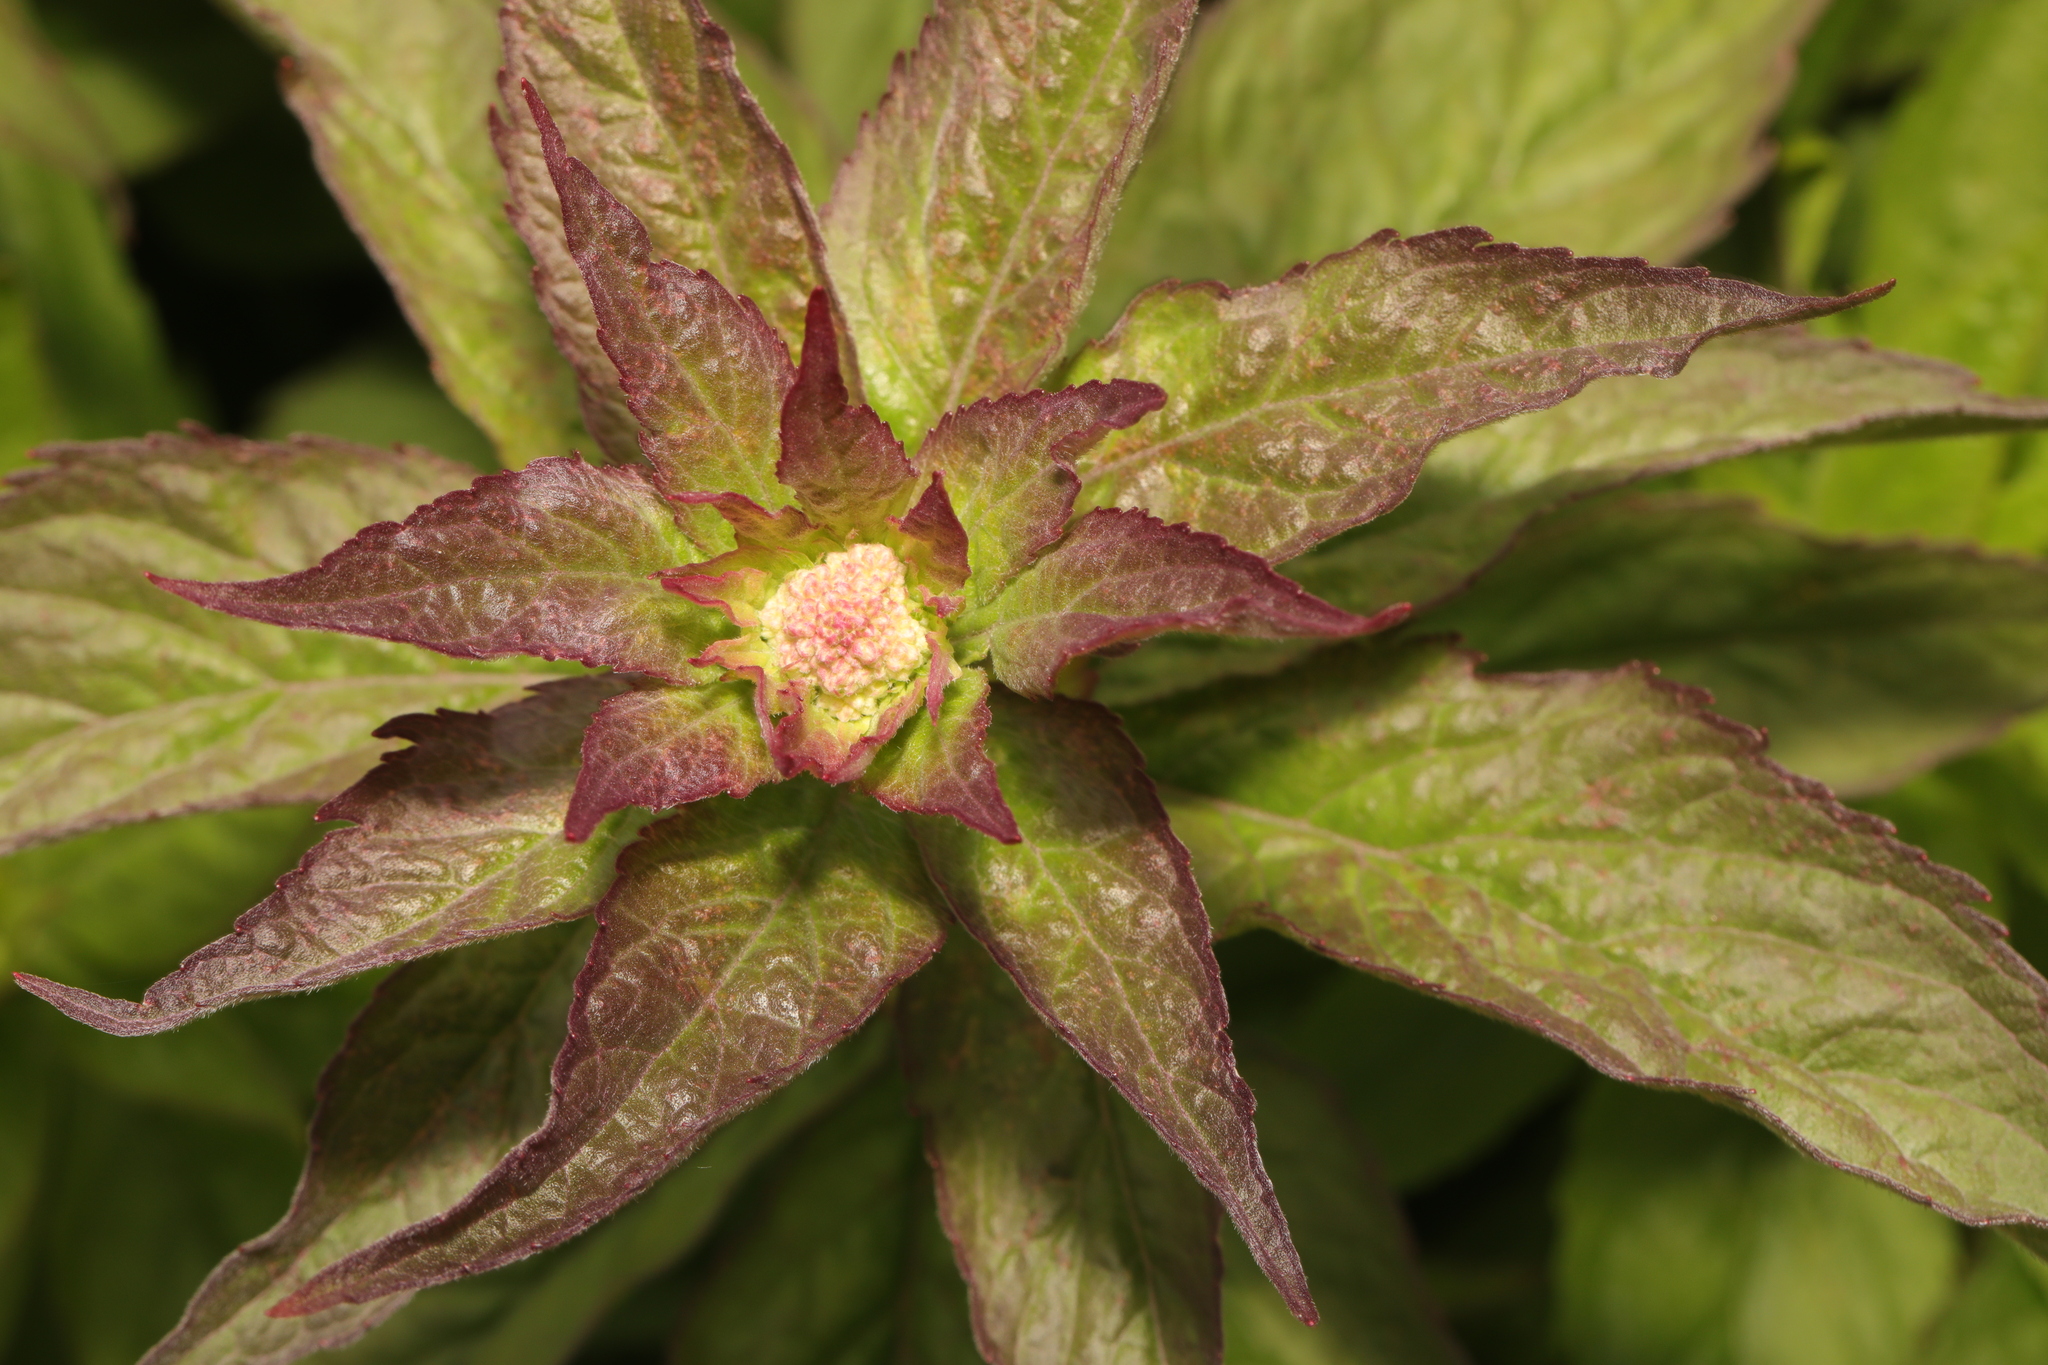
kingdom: Plantae
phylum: Tracheophyta
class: Magnoliopsida
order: Asterales
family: Asteraceae
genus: Eupatorium
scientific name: Eupatorium cannabinum
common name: Hemp-agrimony
